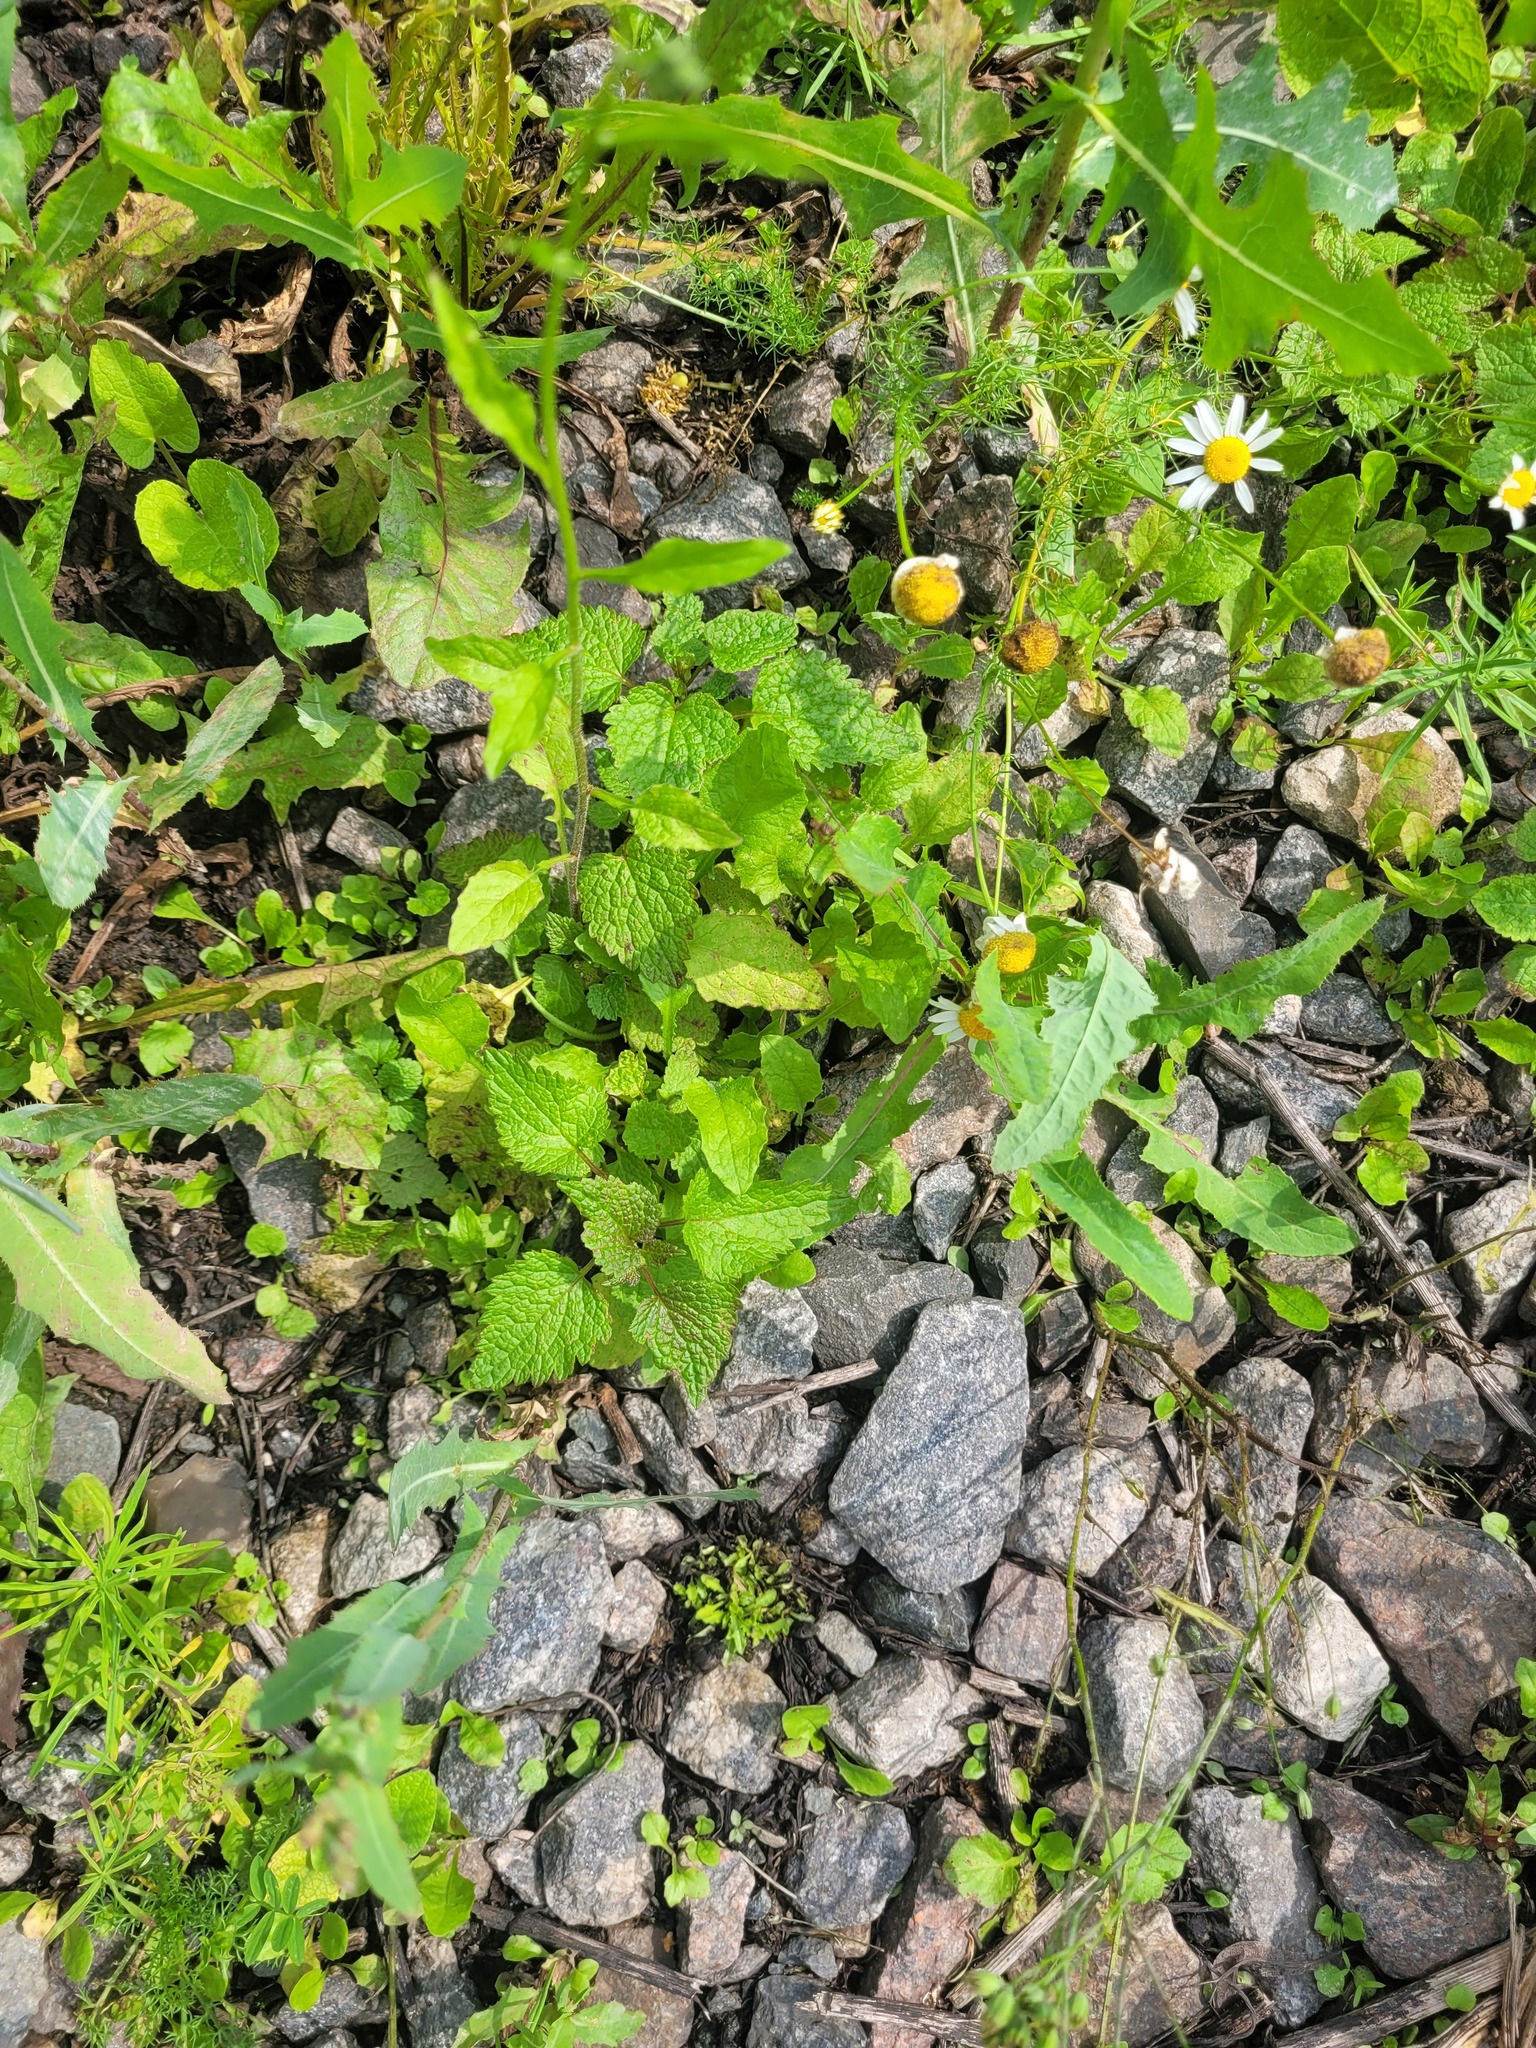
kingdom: Plantae
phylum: Tracheophyta
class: Magnoliopsida
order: Lamiales
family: Lamiaceae
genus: Lamium
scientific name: Lamium maculatum
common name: Spotted dead-nettle
